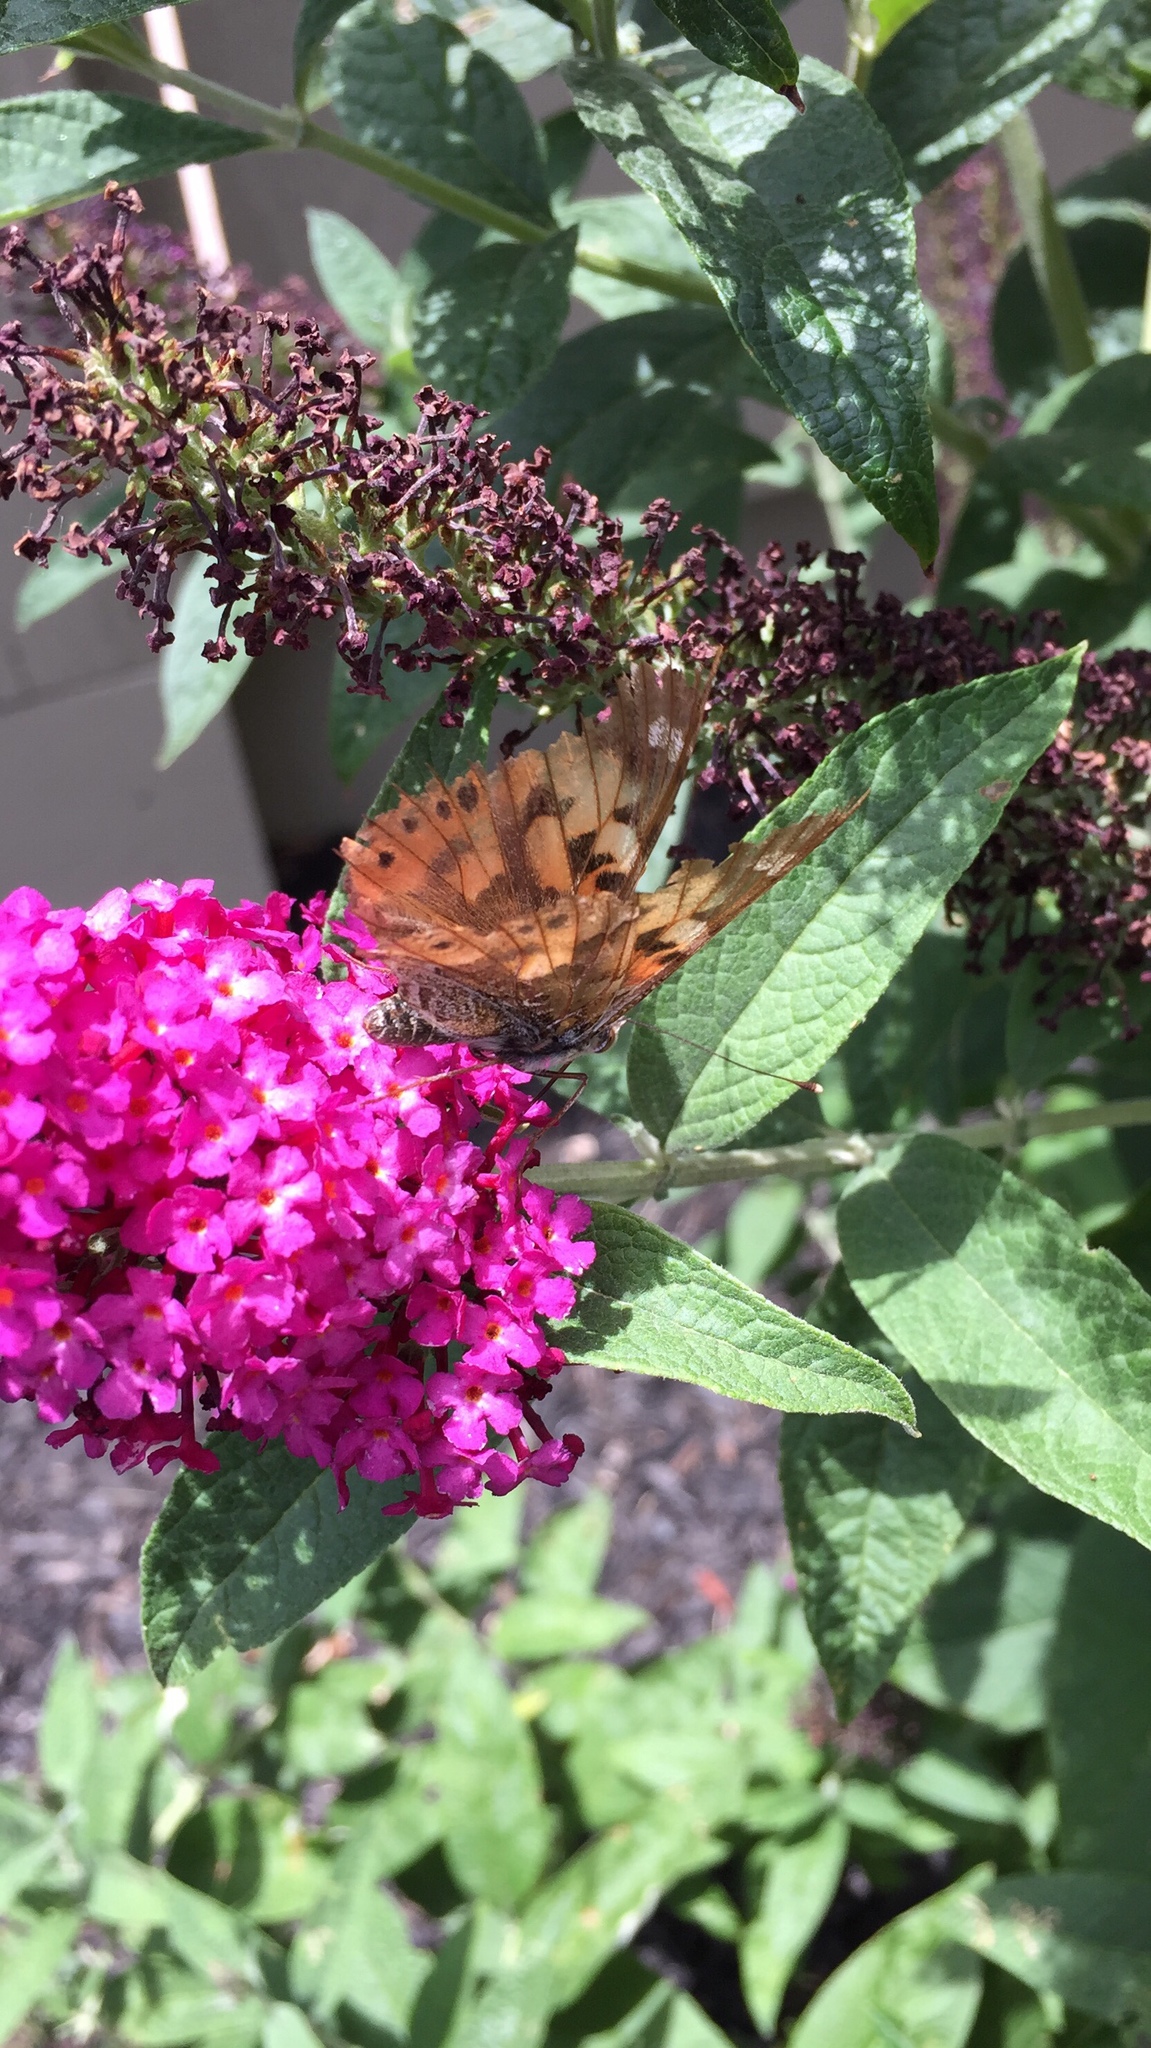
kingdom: Animalia
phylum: Arthropoda
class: Insecta
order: Lepidoptera
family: Nymphalidae
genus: Vanessa
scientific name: Vanessa cardui
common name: Painted lady
